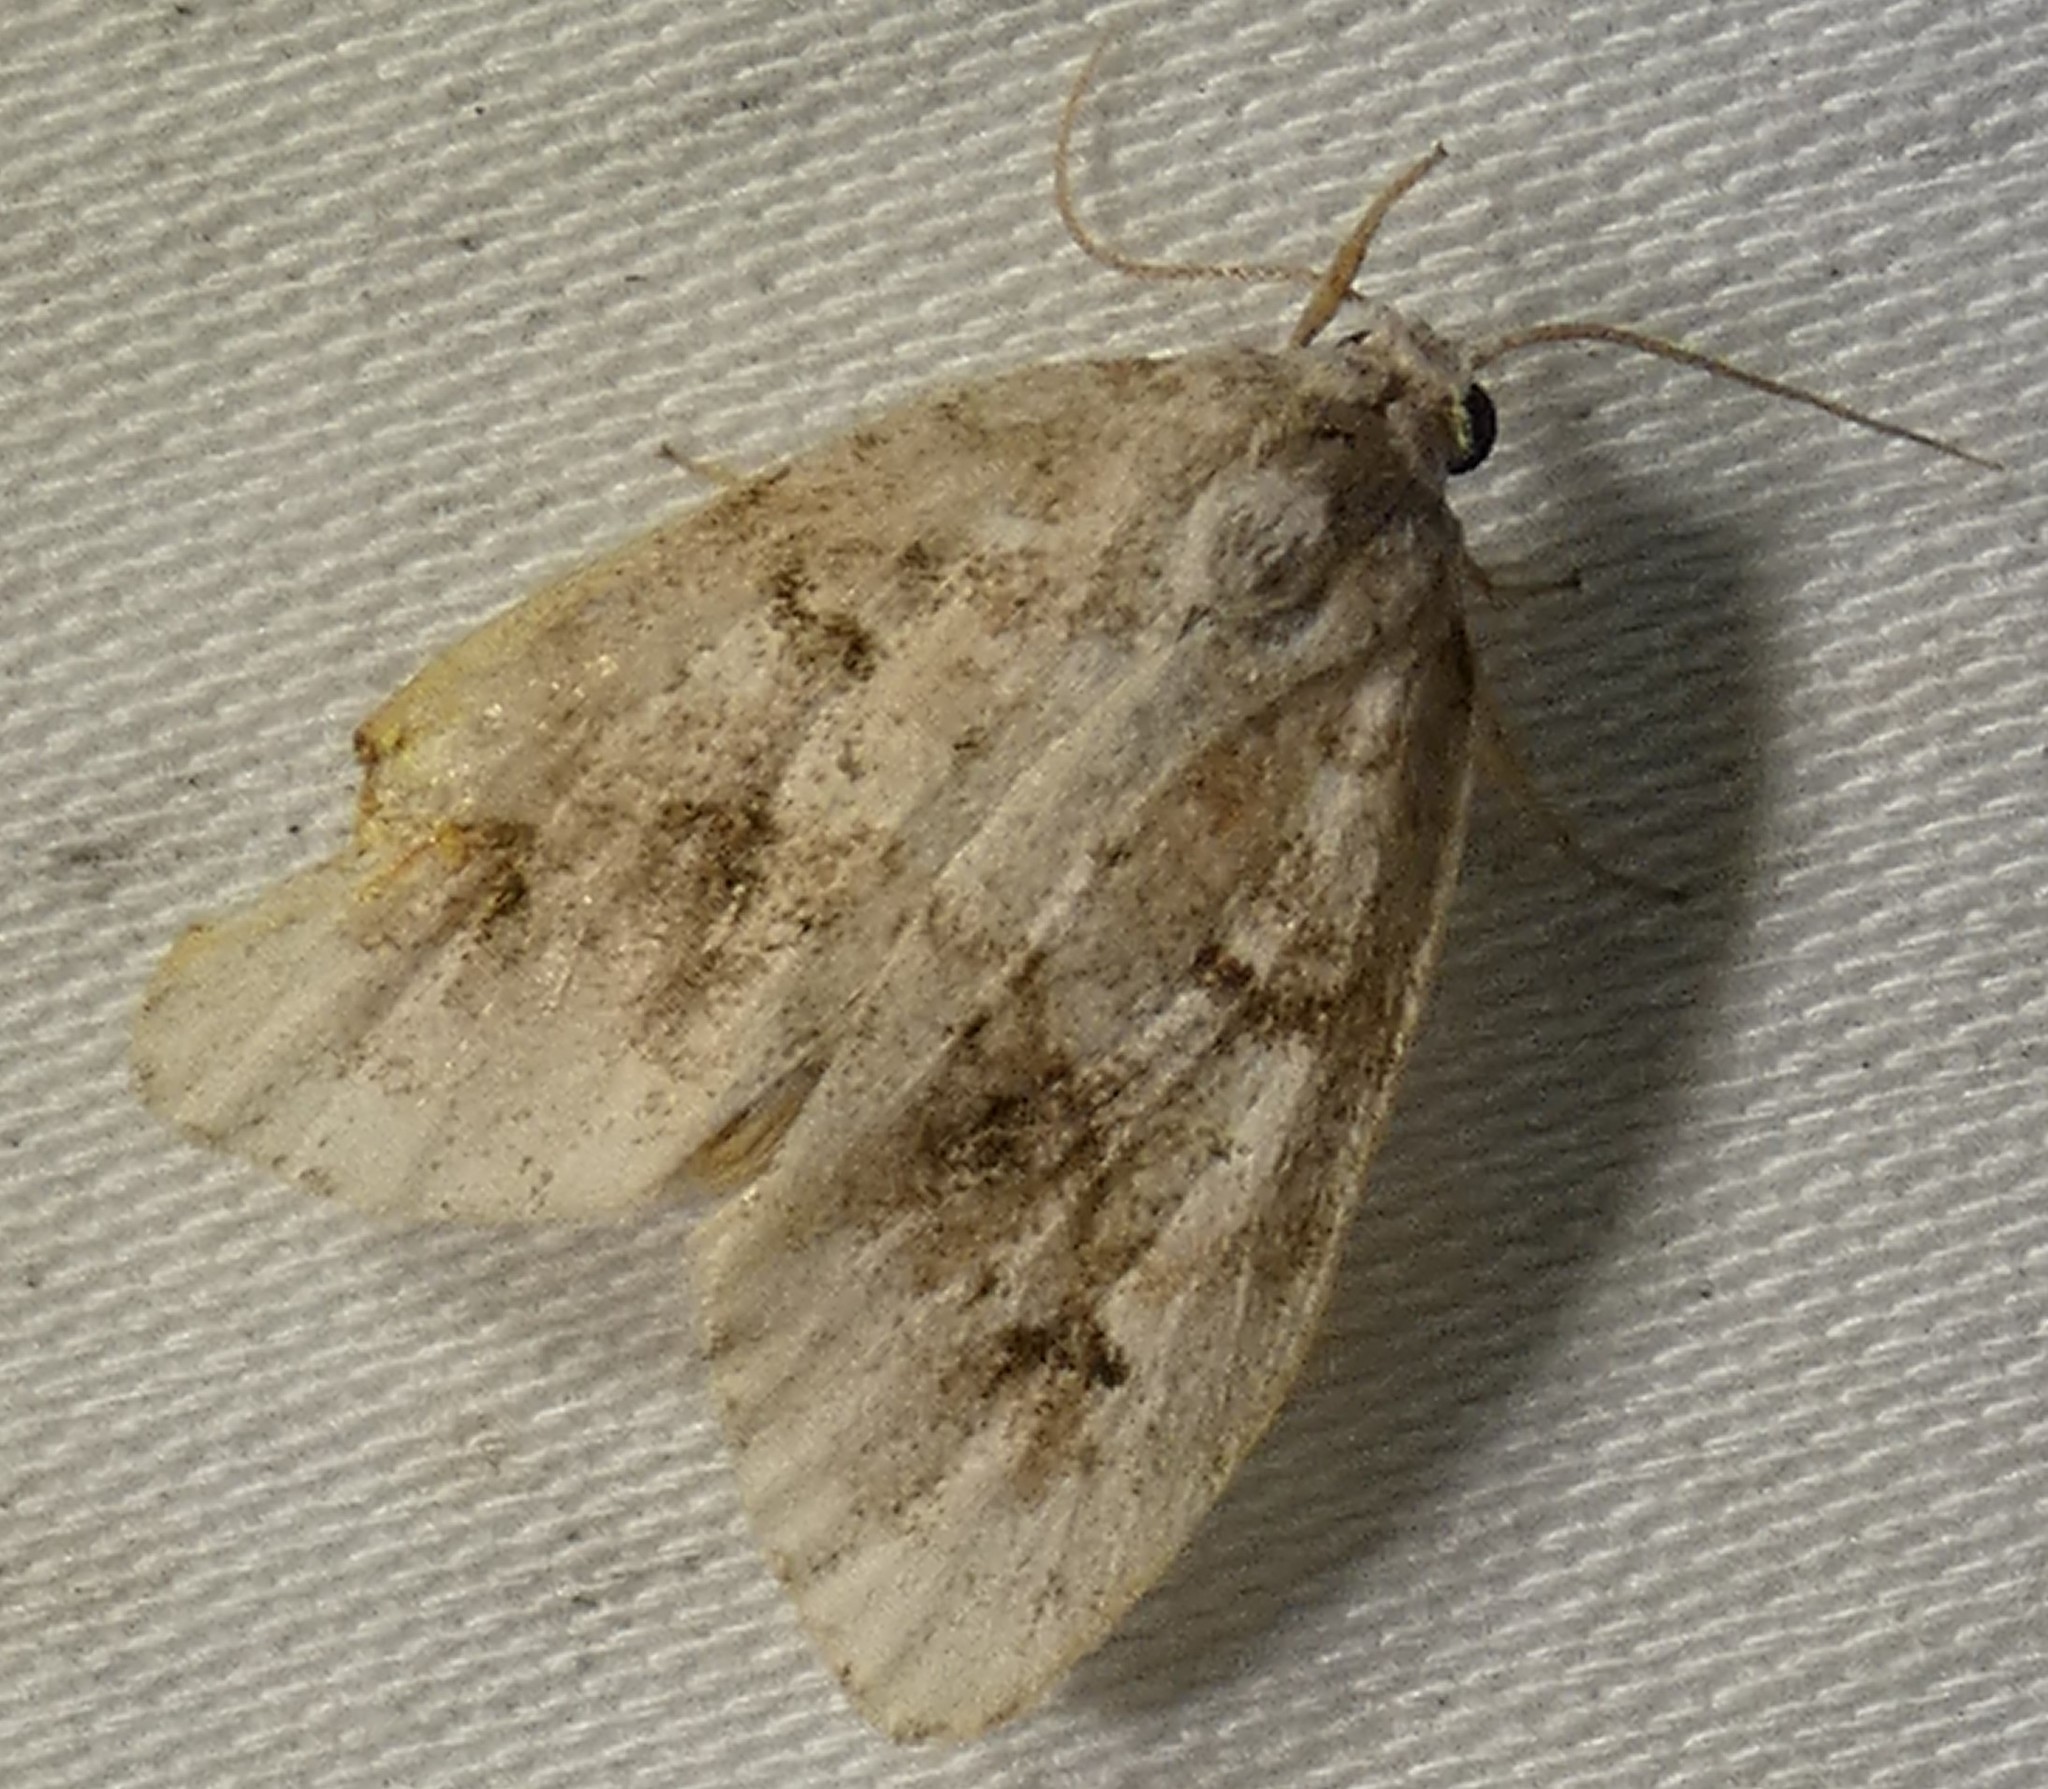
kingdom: Animalia
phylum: Arthropoda
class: Insecta
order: Lepidoptera
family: Erebidae
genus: Clemensia
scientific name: Clemensia albata
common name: Little white lichen moth
